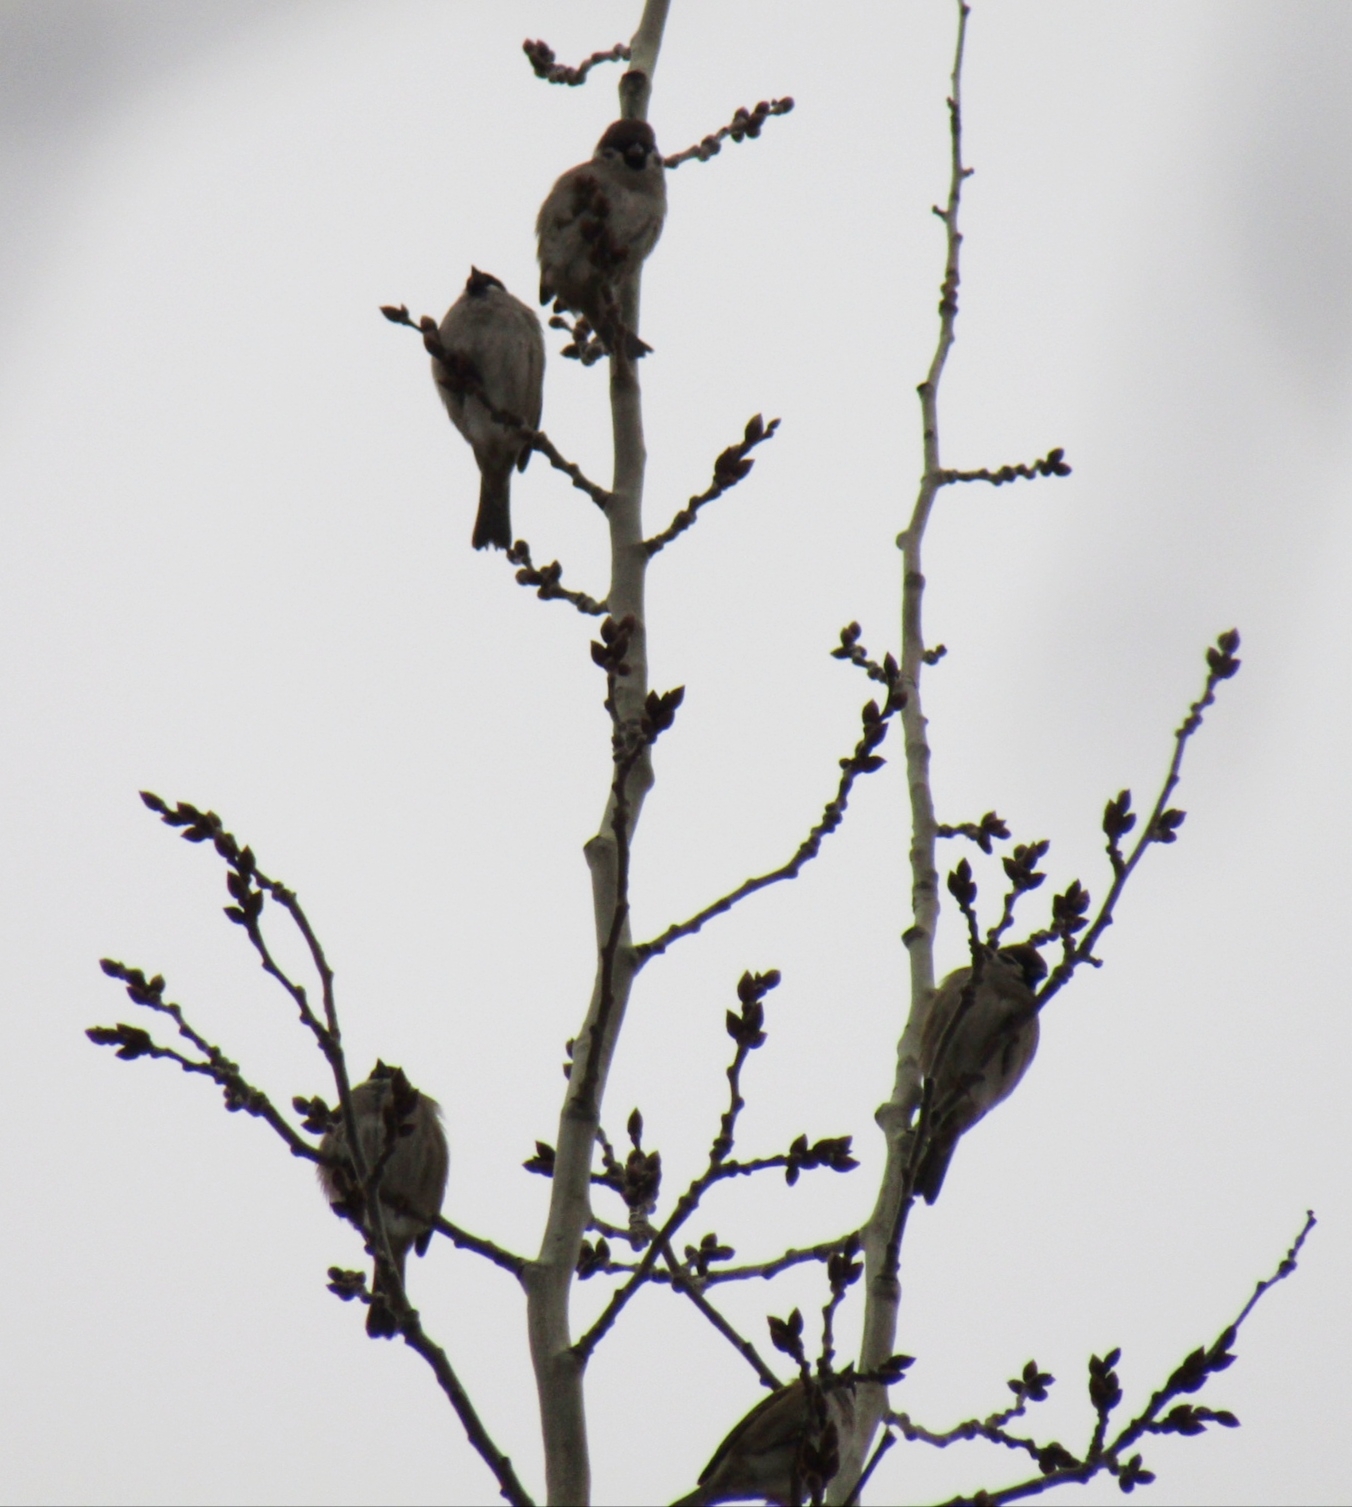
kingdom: Animalia
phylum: Chordata
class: Aves
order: Passeriformes
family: Passeridae
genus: Passer
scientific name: Passer montanus
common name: Eurasian tree sparrow
